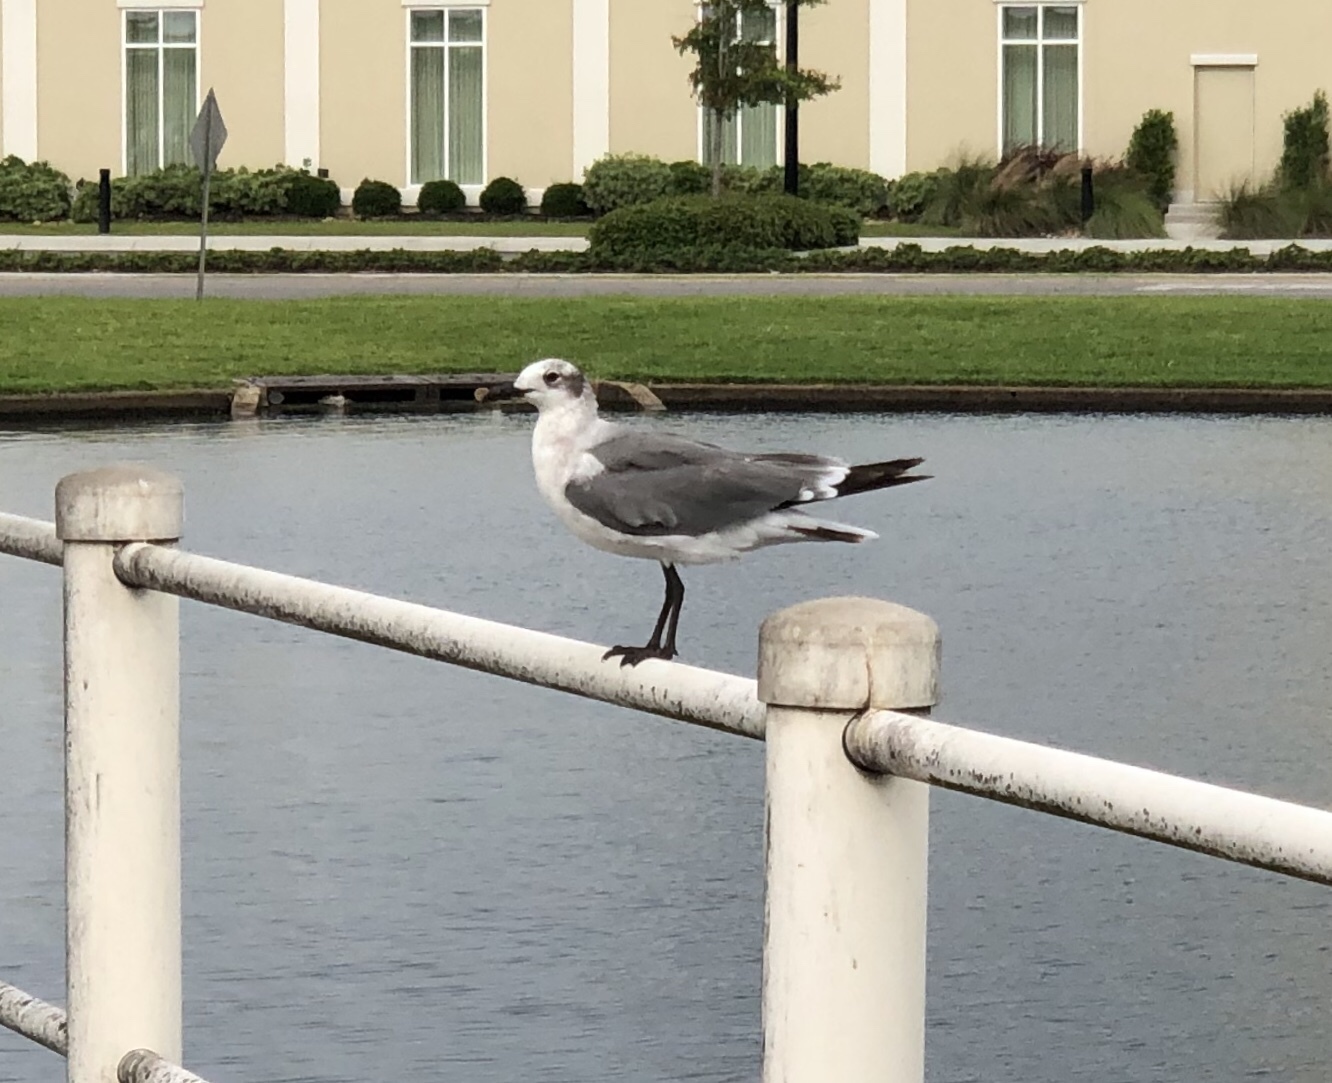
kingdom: Animalia
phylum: Chordata
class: Aves
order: Charadriiformes
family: Laridae
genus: Leucophaeus
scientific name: Leucophaeus atricilla
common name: Laughing gull
